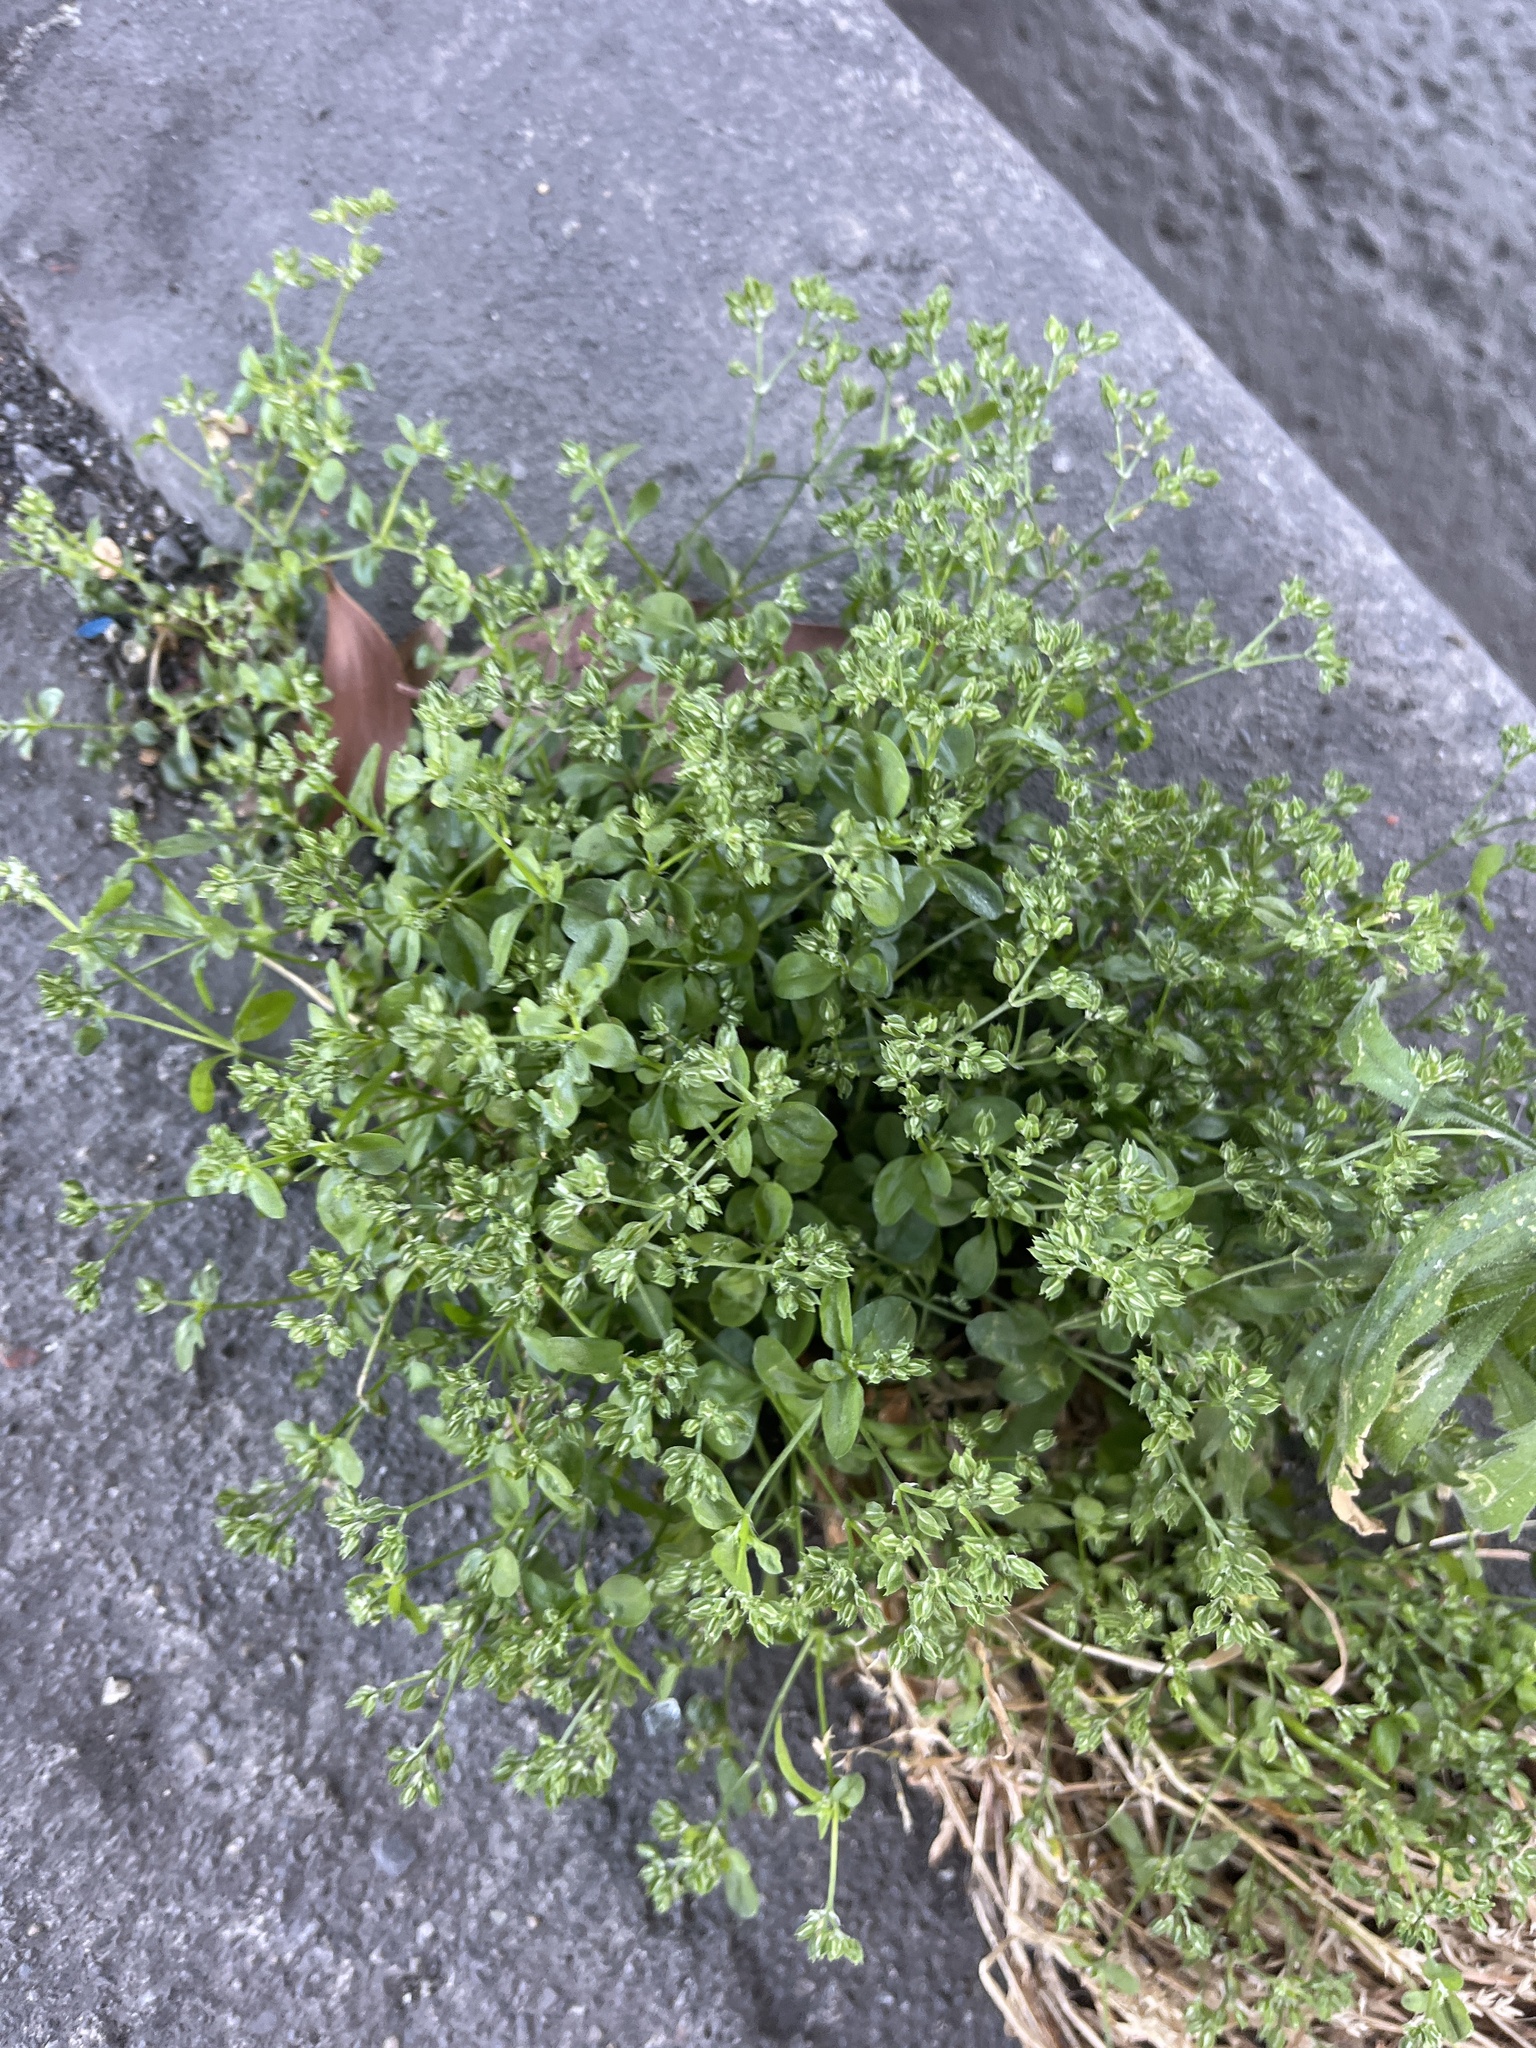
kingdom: Plantae
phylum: Tracheophyta
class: Magnoliopsida
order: Caryophyllales
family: Caryophyllaceae
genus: Polycarpon
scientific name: Polycarpon tetraphyllum
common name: Four-leaved all-seed
